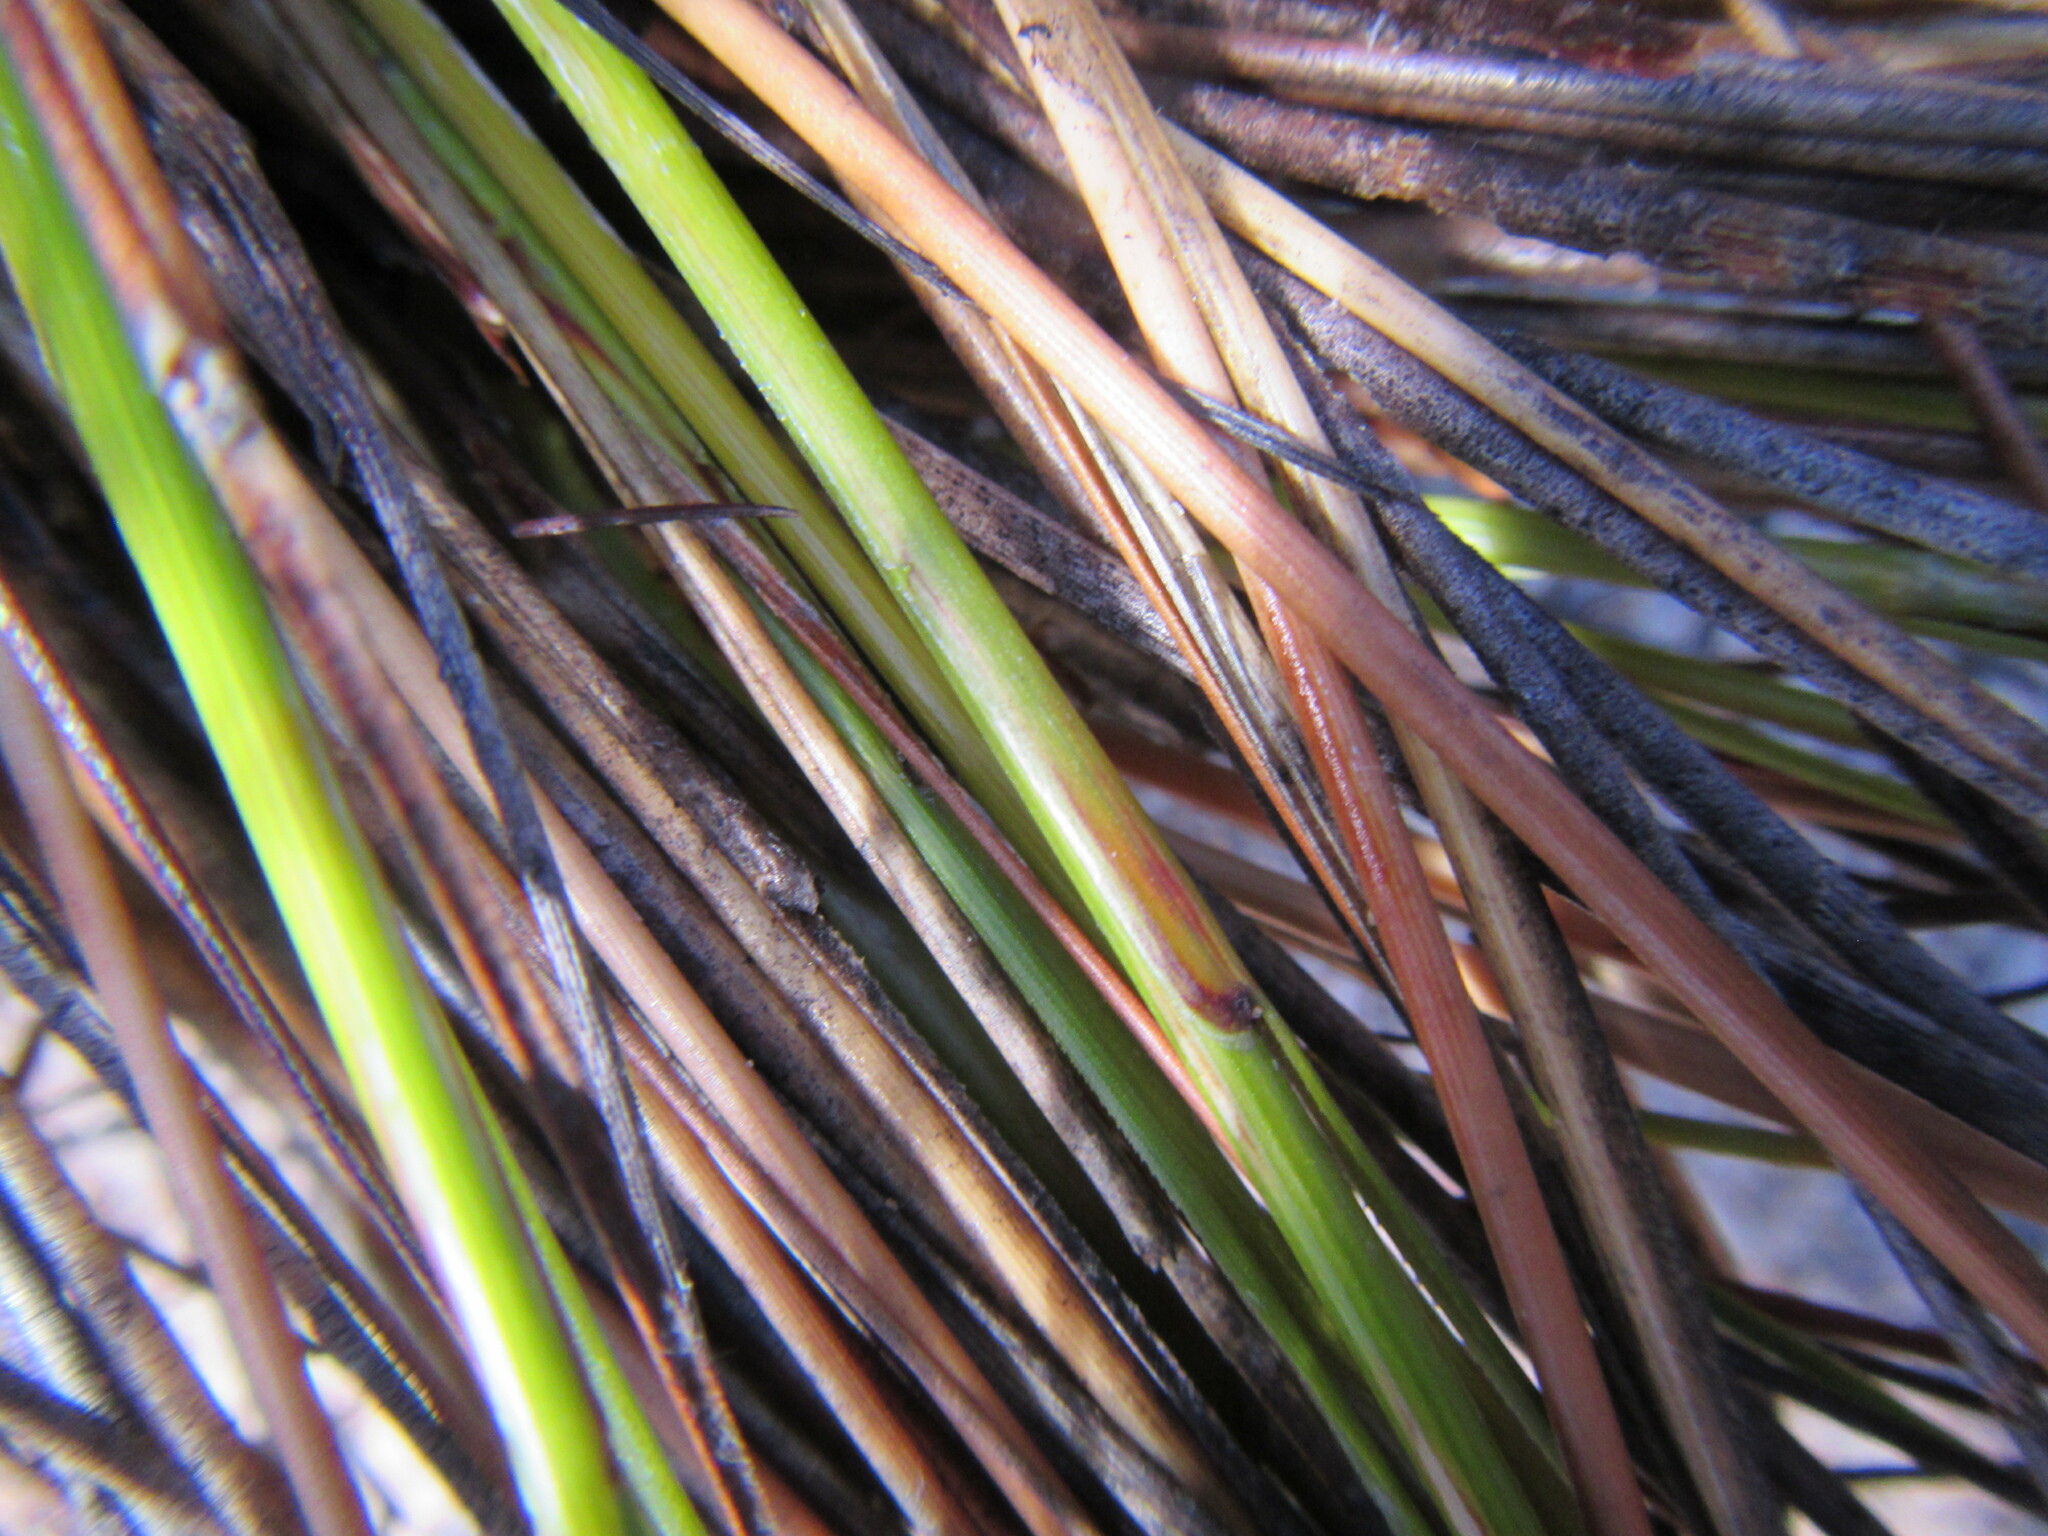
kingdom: Plantae
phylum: Tracheophyta
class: Liliopsida
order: Poales
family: Cyperaceae
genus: Schoenus
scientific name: Schoenus pseudoloreus
